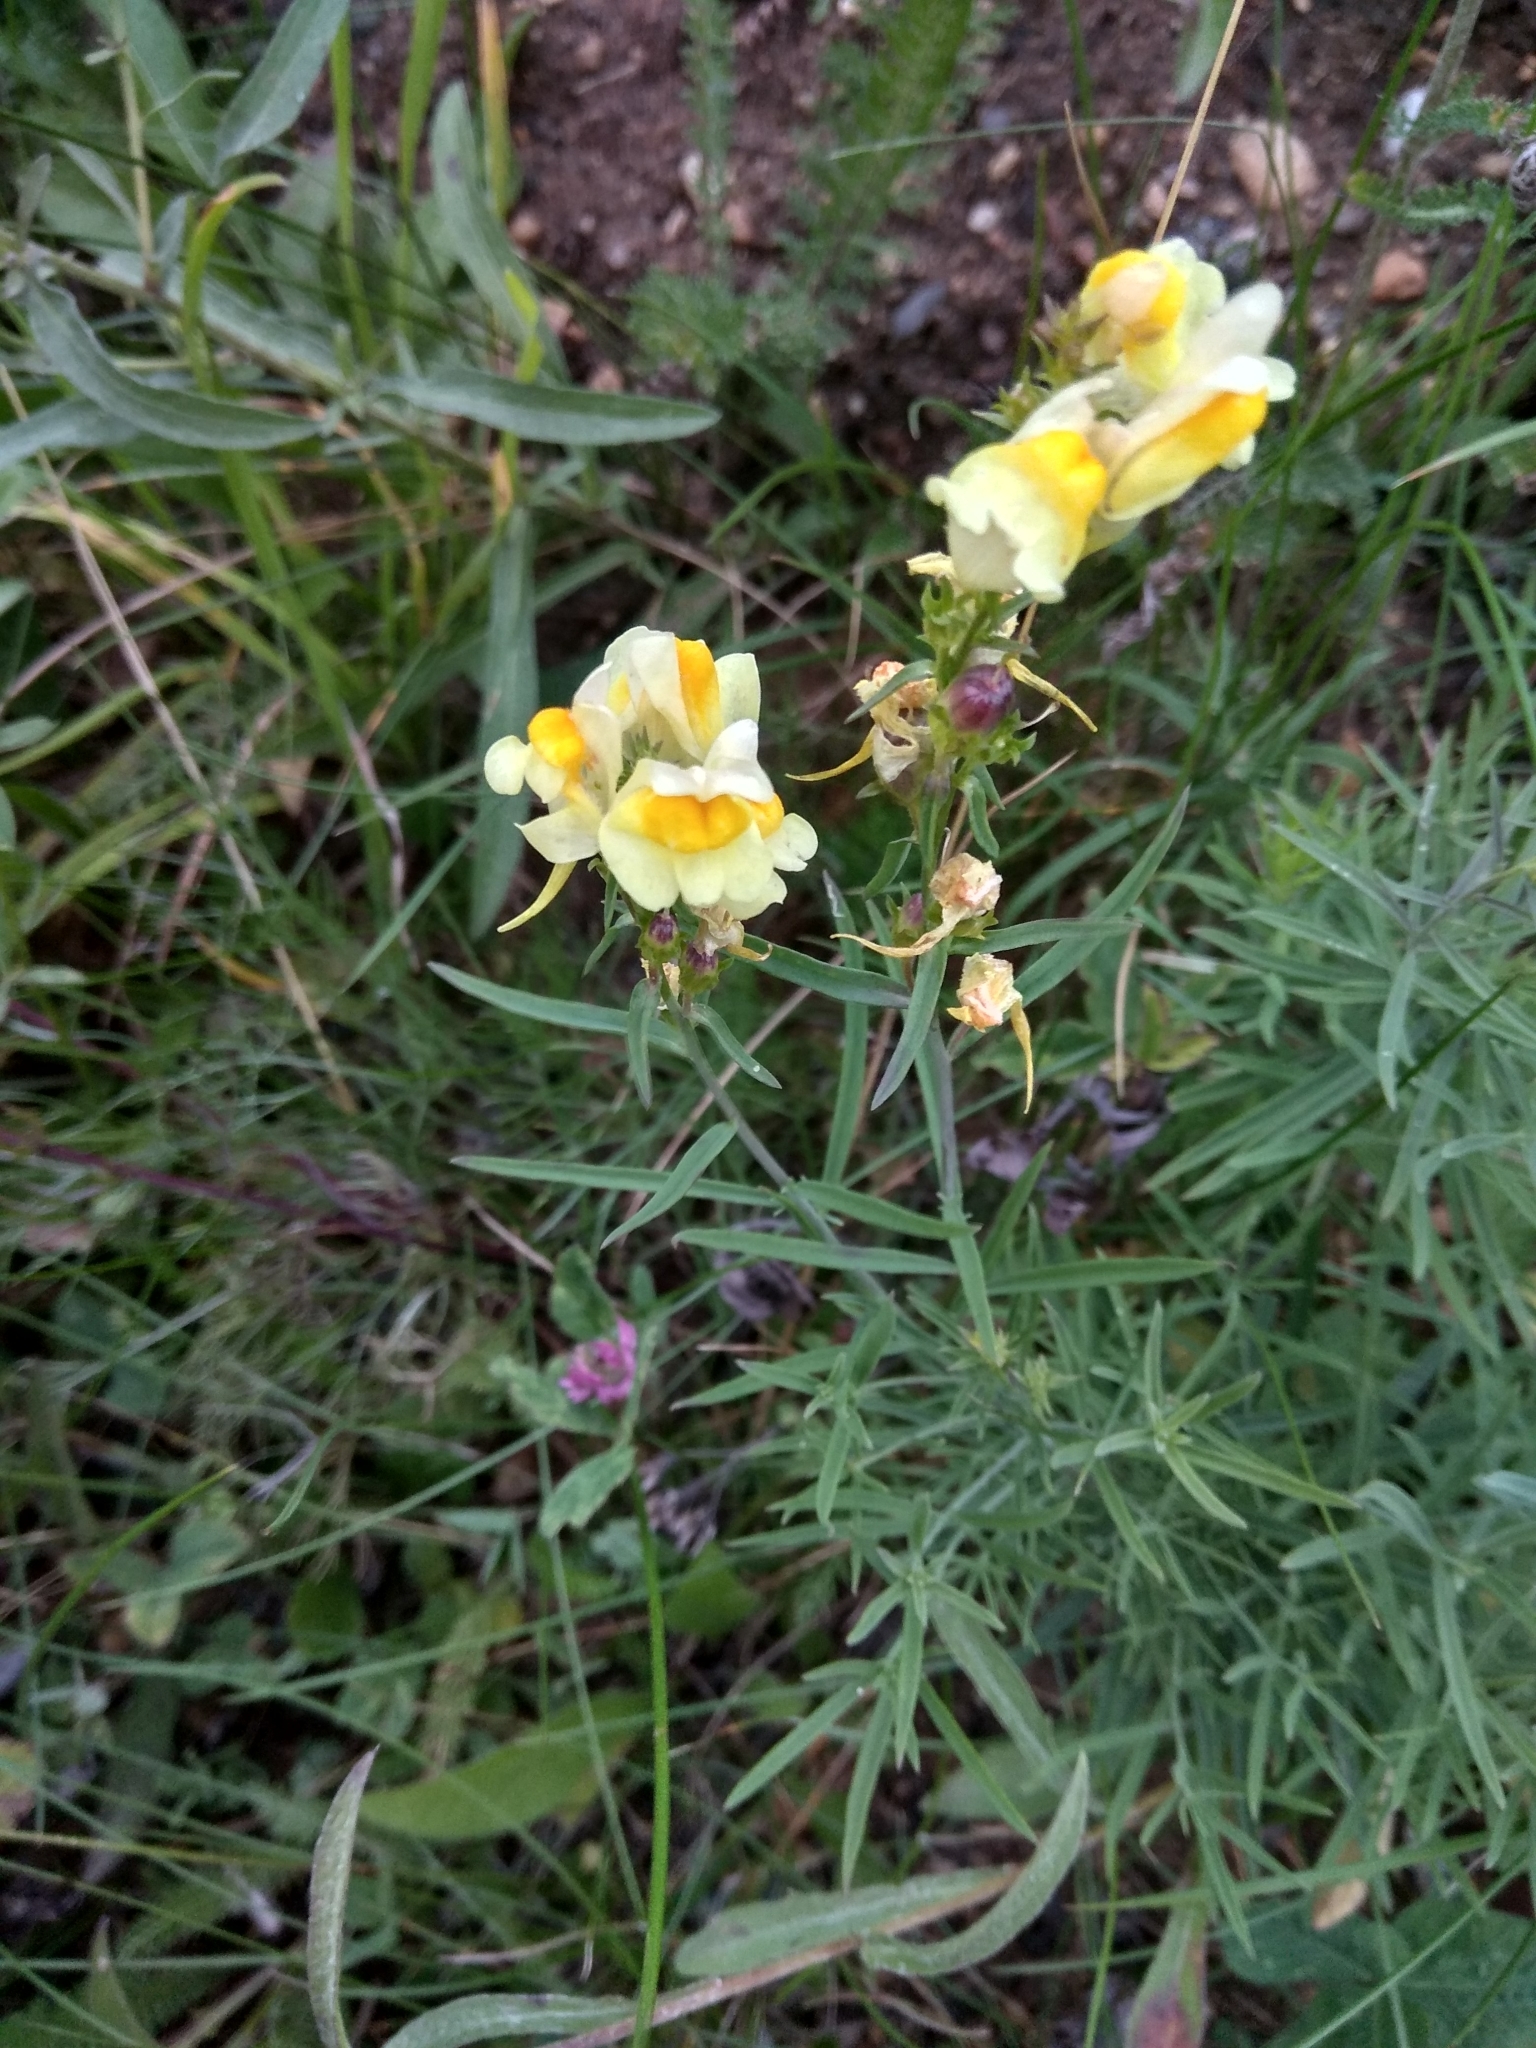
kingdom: Plantae
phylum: Tracheophyta
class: Magnoliopsida
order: Lamiales
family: Plantaginaceae
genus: Linaria
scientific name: Linaria vulgaris
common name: Butter and eggs
